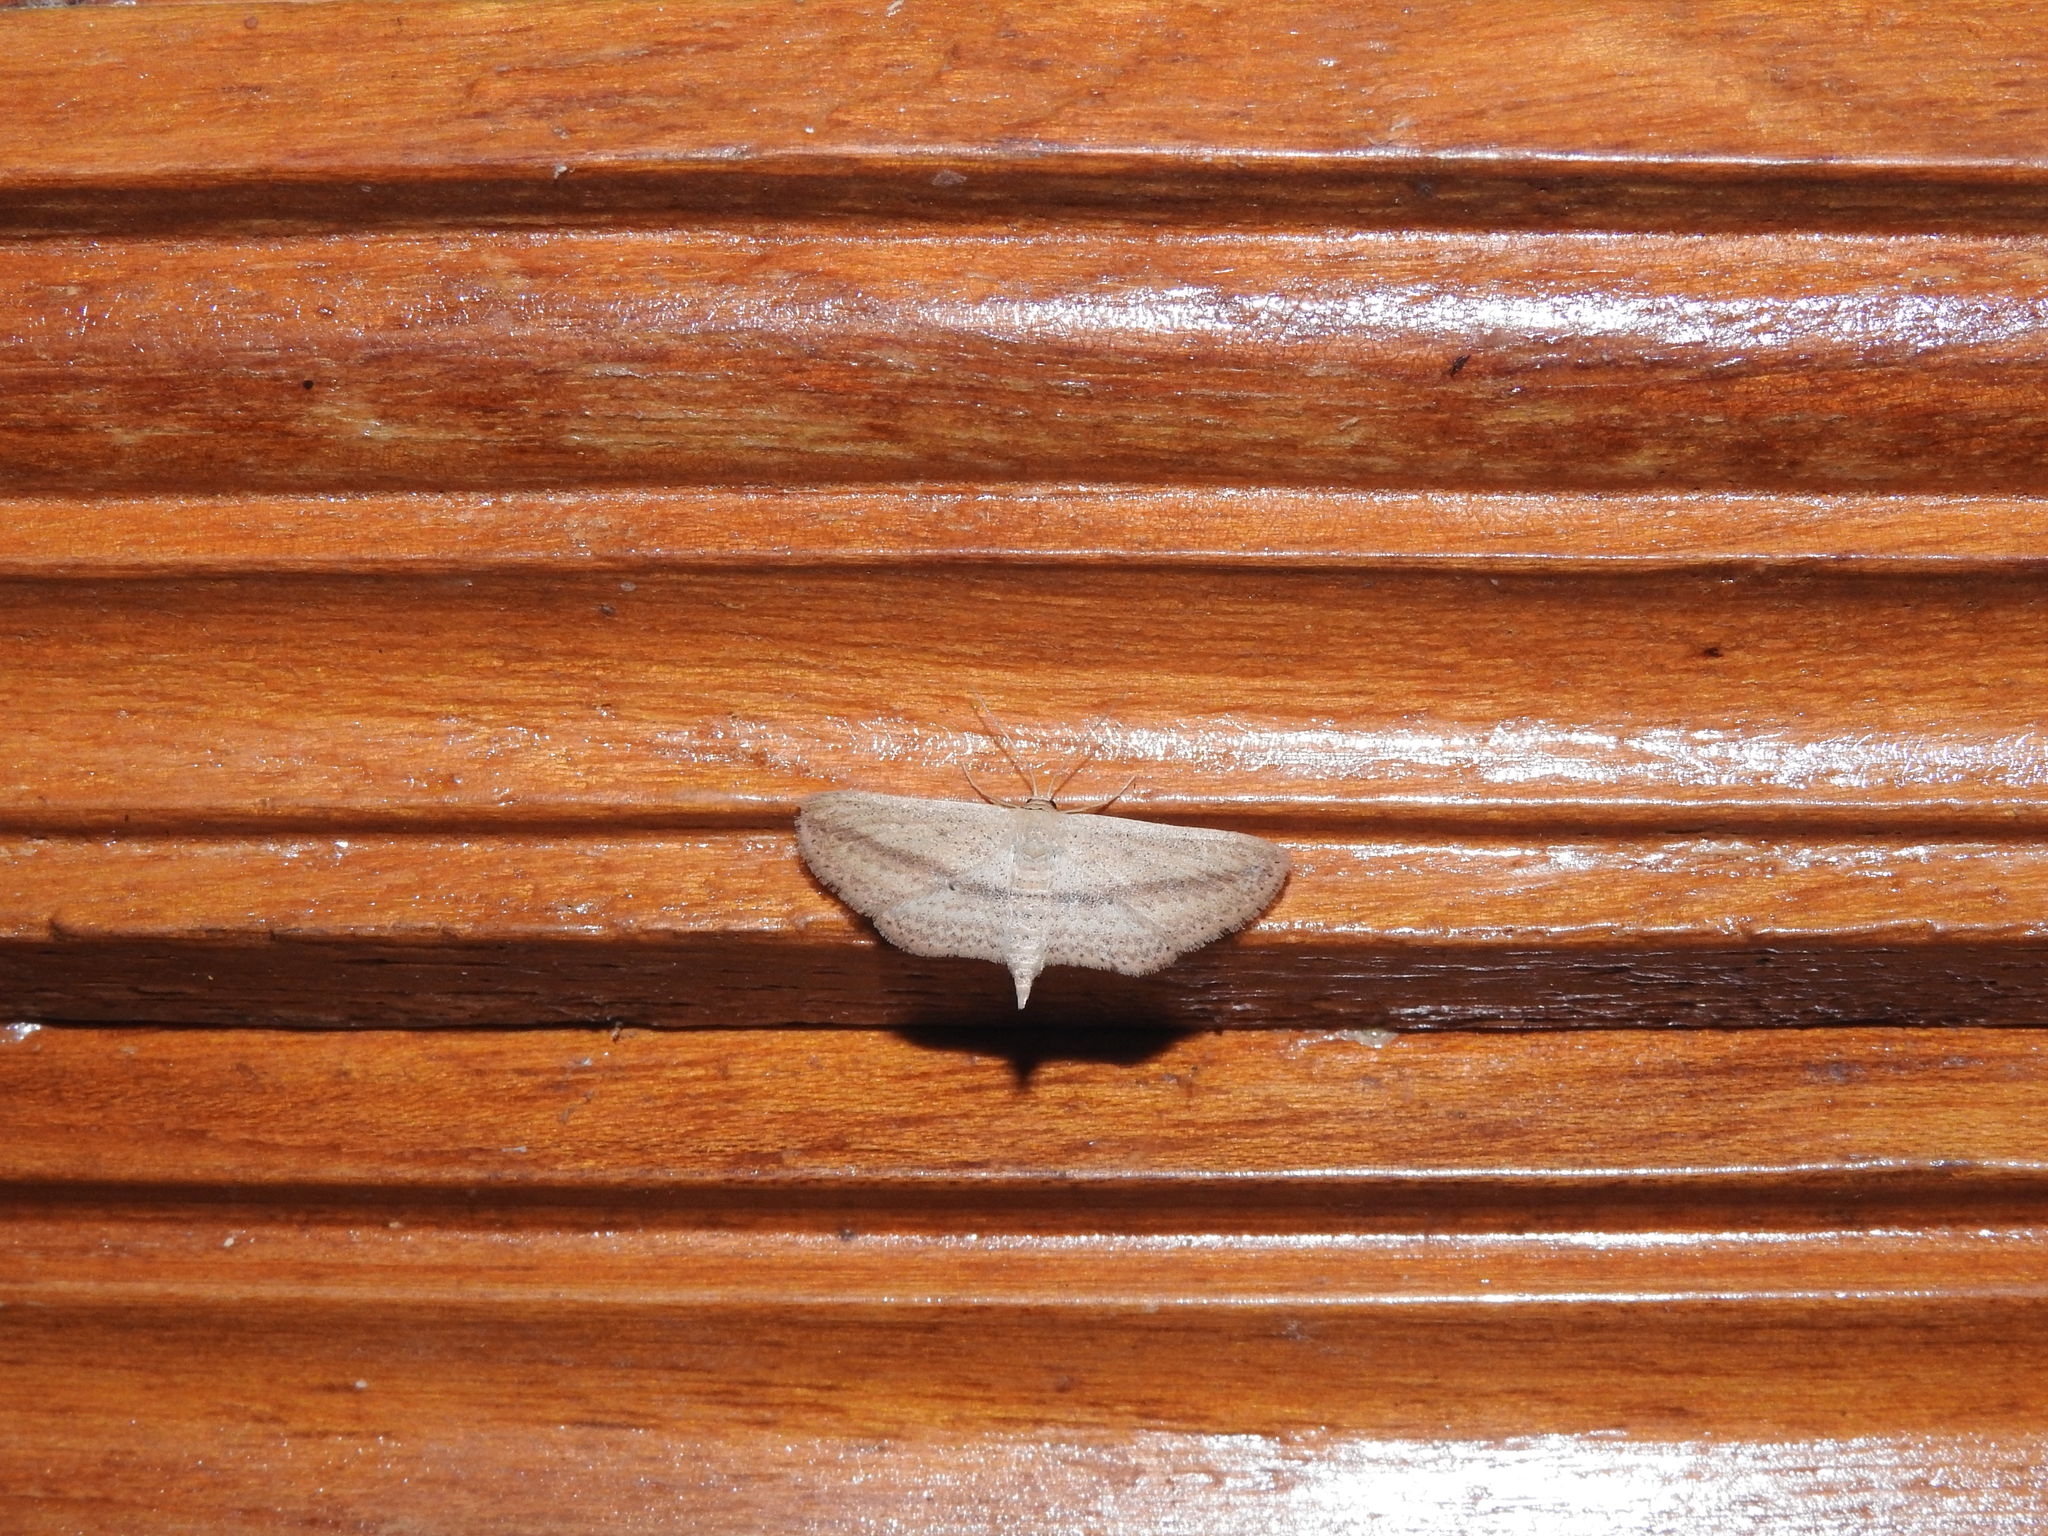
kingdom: Animalia
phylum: Arthropoda
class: Insecta
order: Lepidoptera
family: Geometridae
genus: Scopula
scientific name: Scopula emissaria
